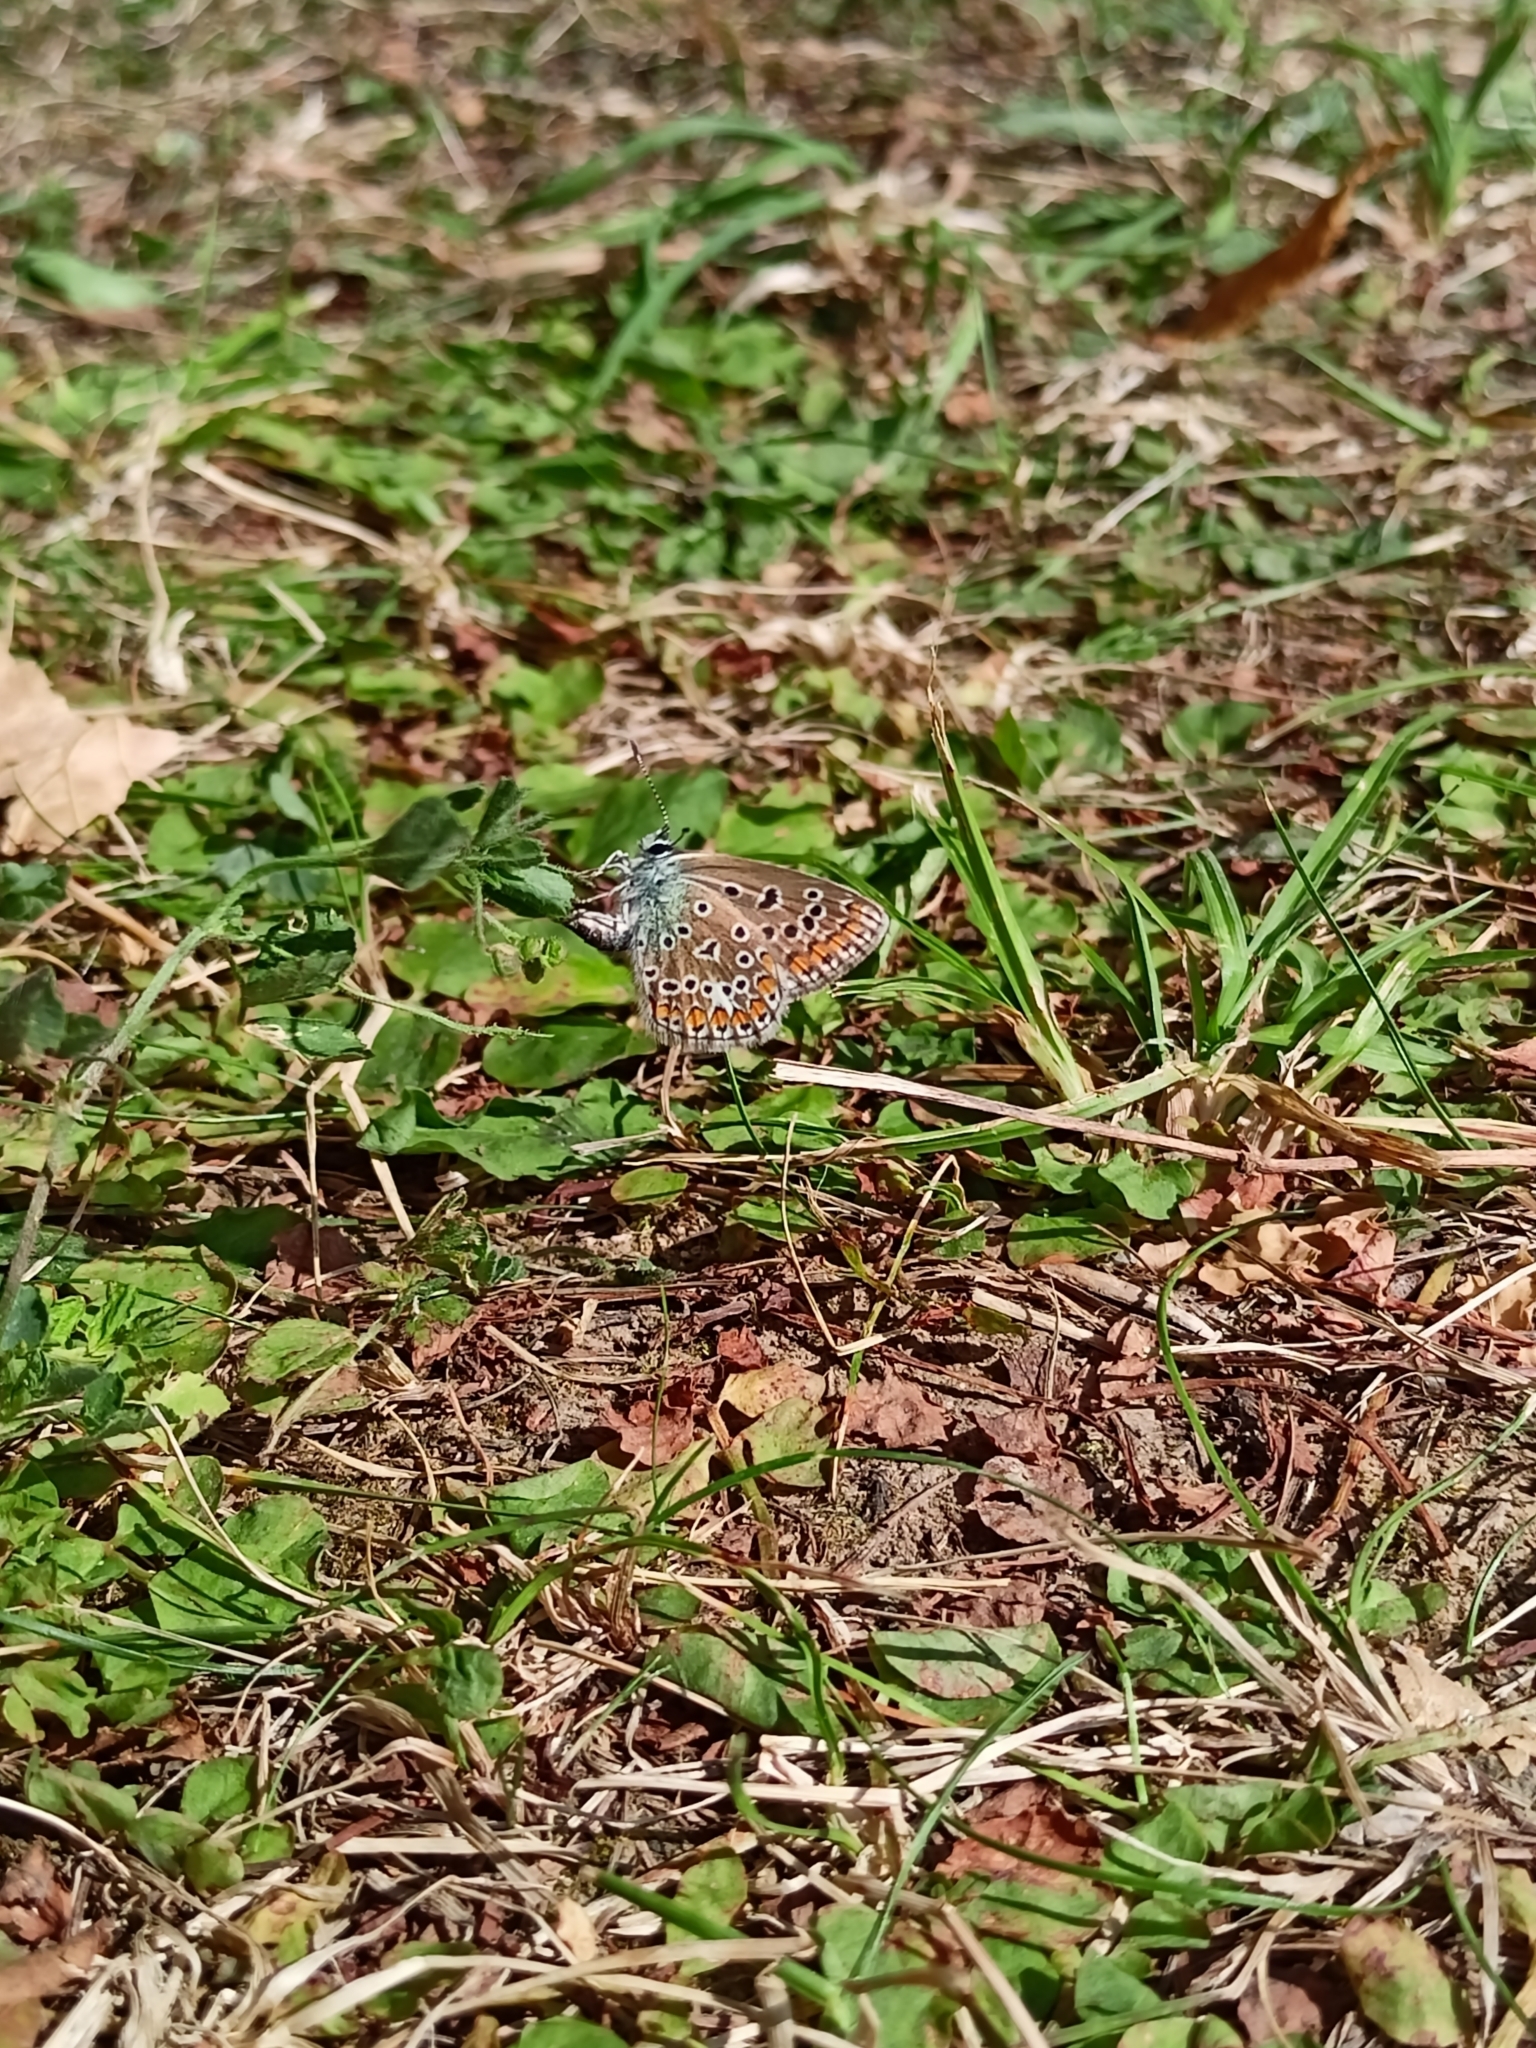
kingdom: Animalia
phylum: Arthropoda
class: Insecta
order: Lepidoptera
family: Lycaenidae
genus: Polyommatus
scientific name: Polyommatus icarus
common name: Common blue
